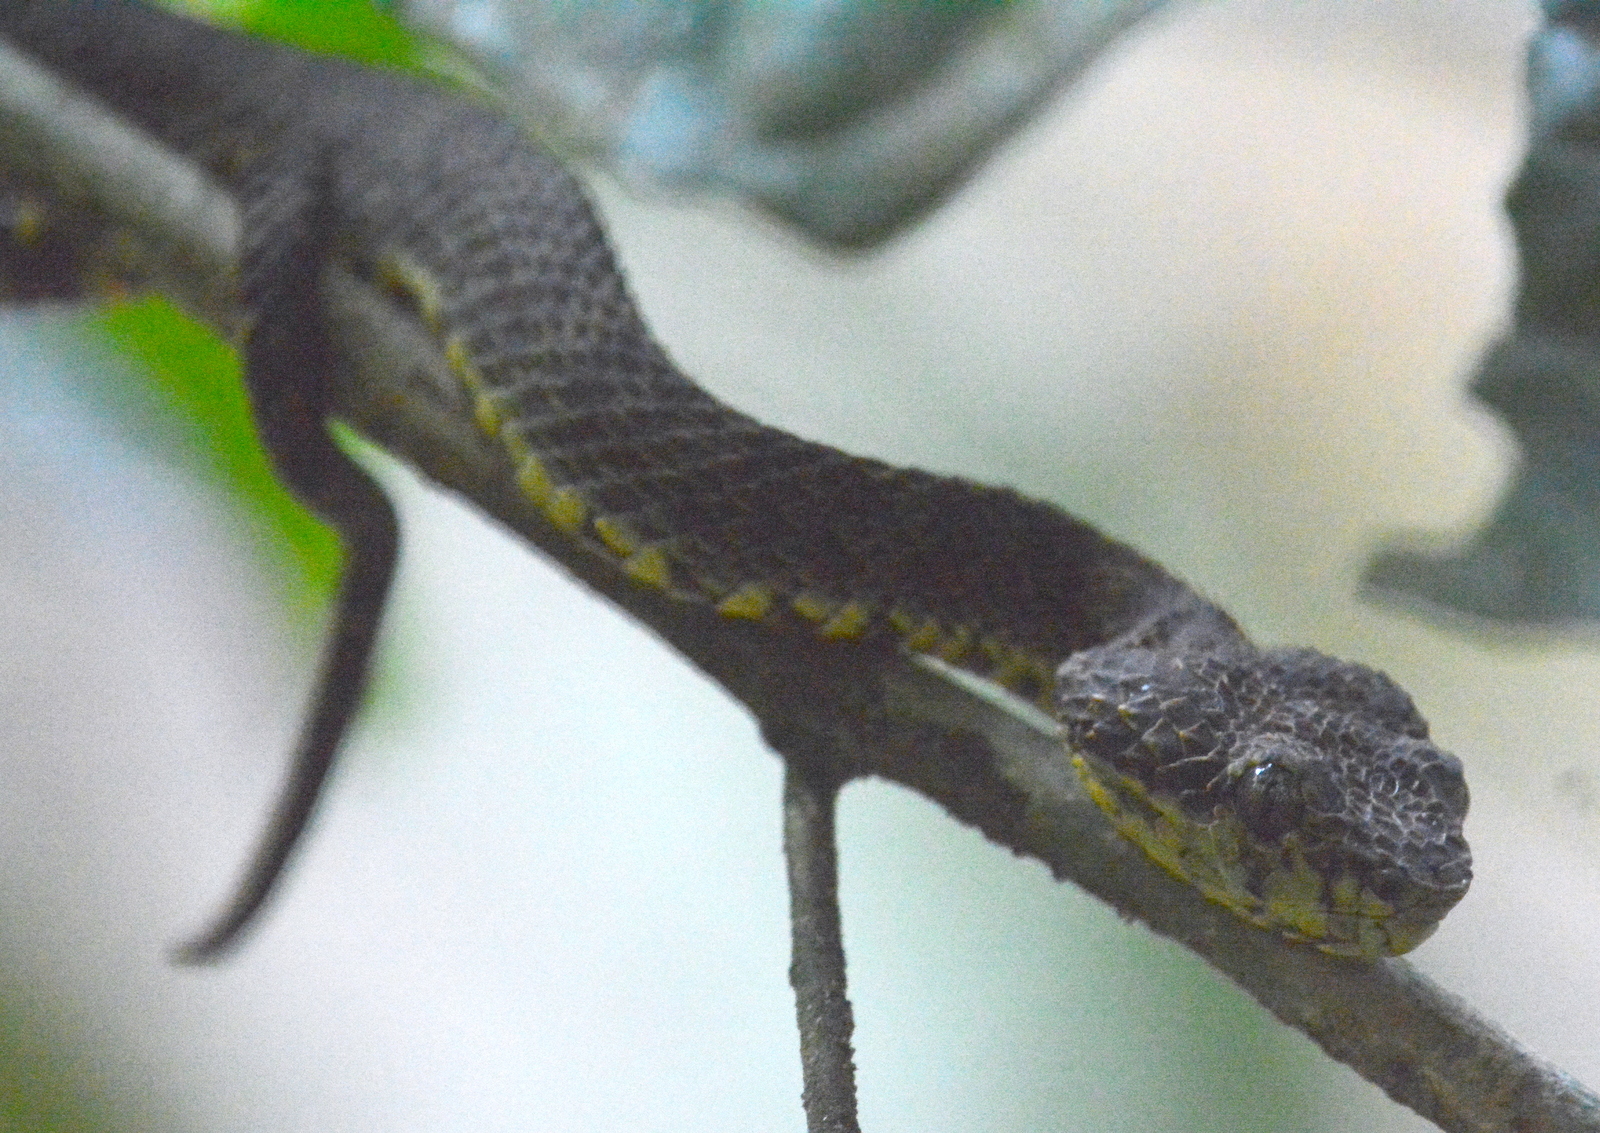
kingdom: Animalia
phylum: Chordata
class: Squamata
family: Viperidae
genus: Craspedocephalus
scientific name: Craspedocephalus anamallensis
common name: Malabarian pit viper
